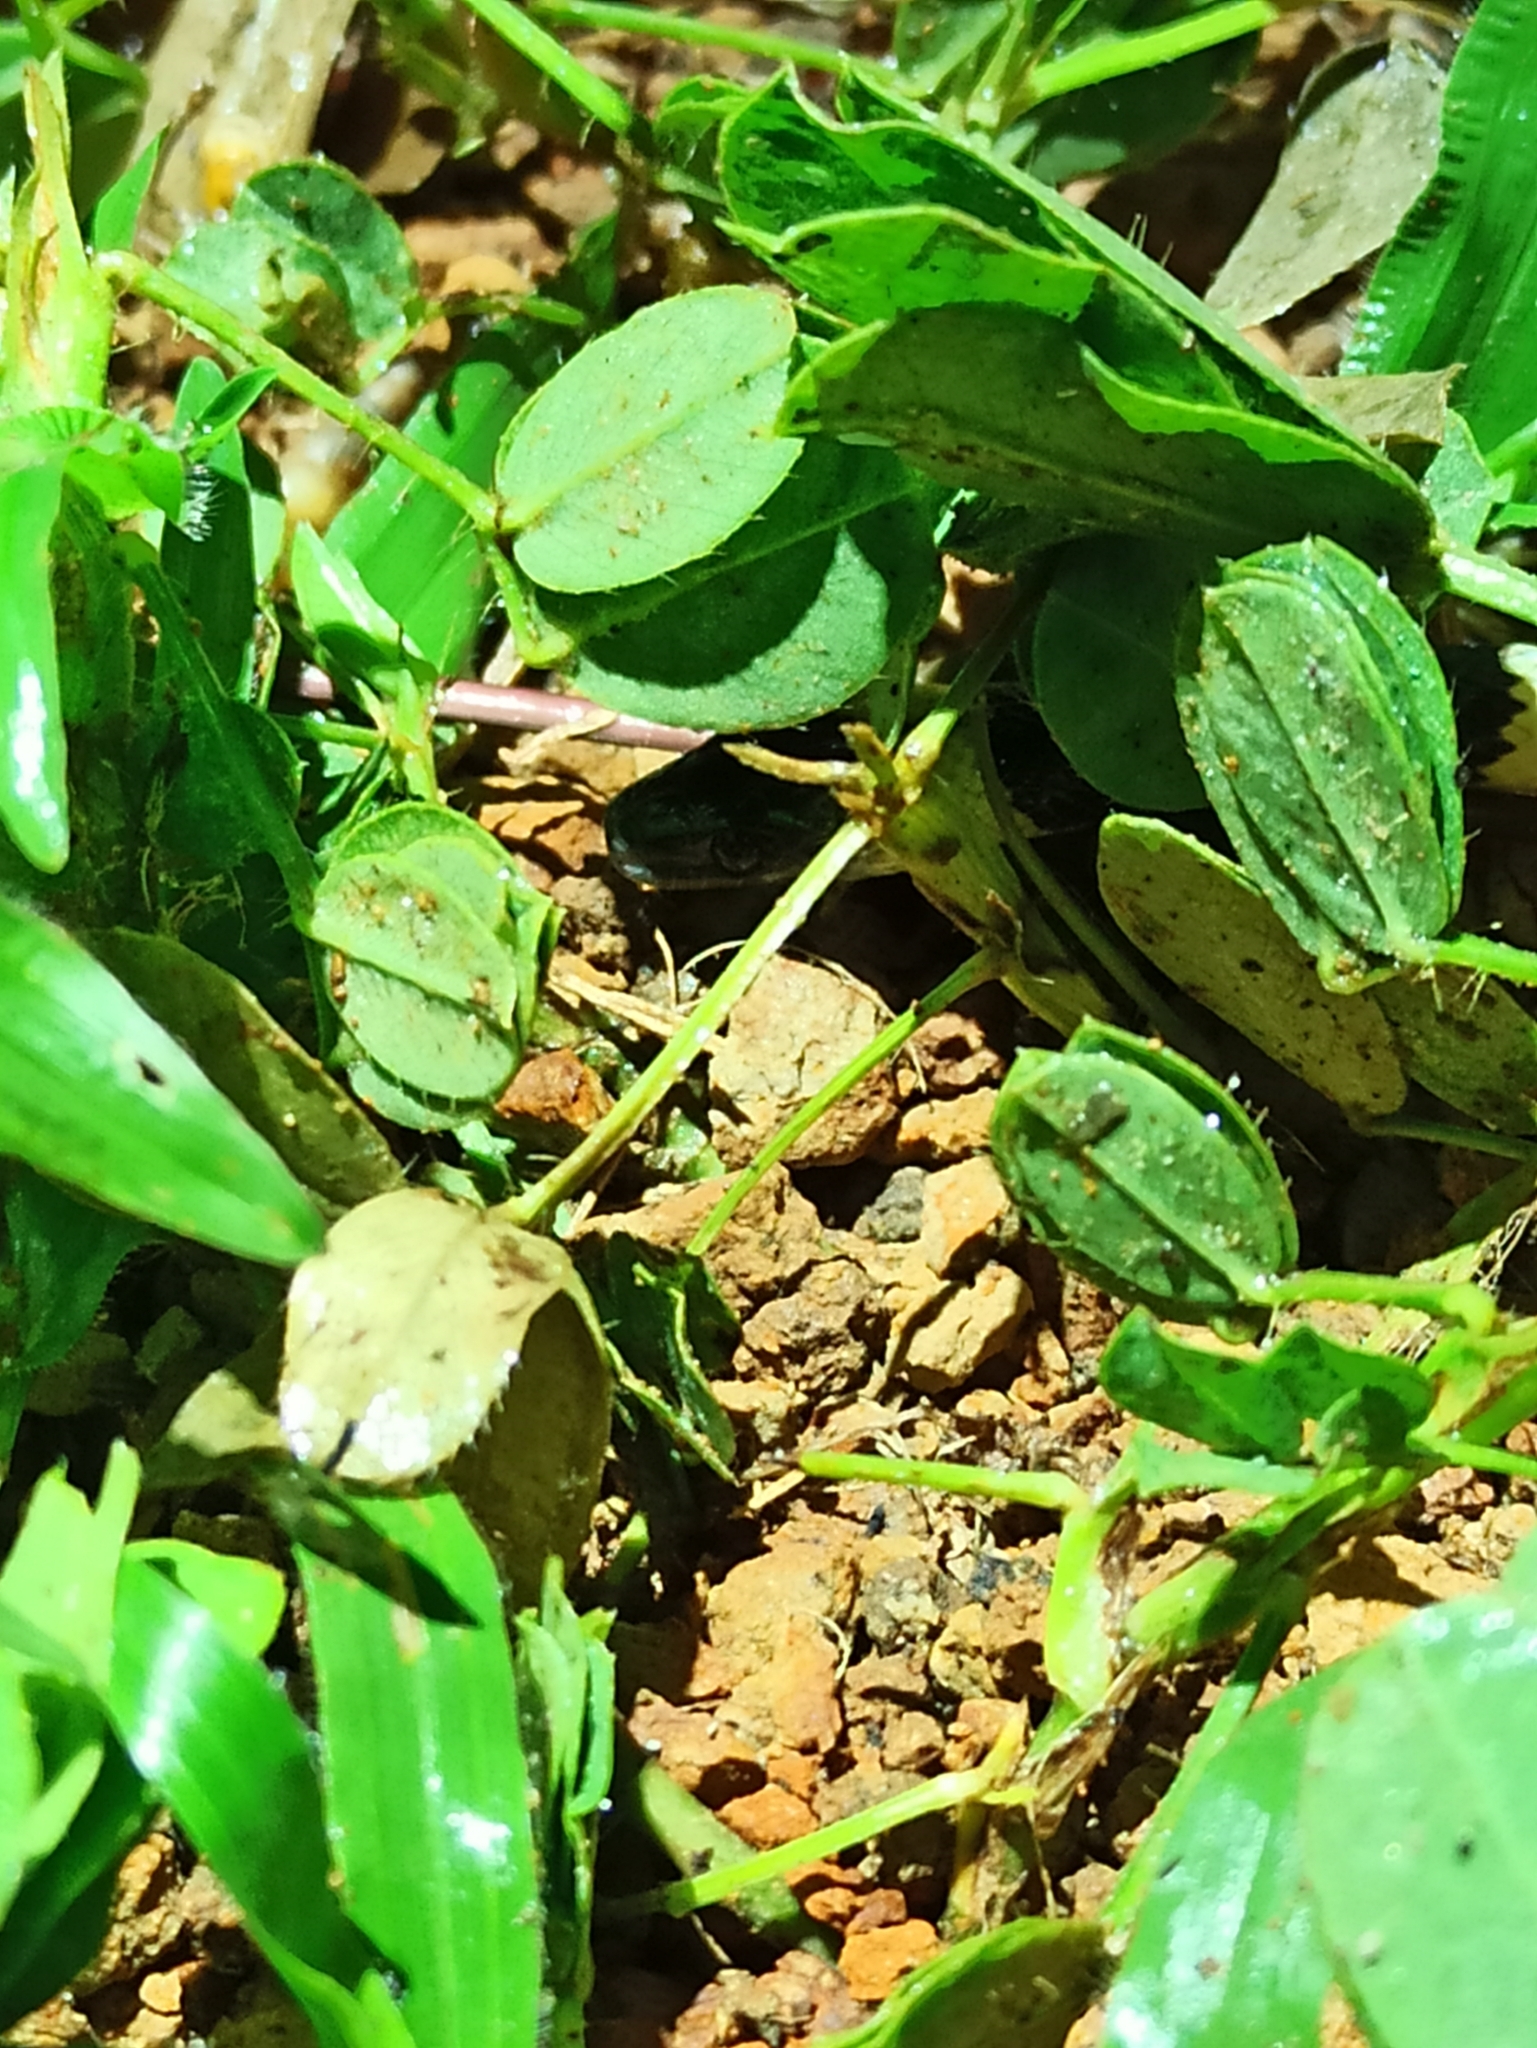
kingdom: Animalia
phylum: Chordata
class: Squamata
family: Colubridae
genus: Oxyrhopus
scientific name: Oxyrhopus petolarius
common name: Forest flame snake
